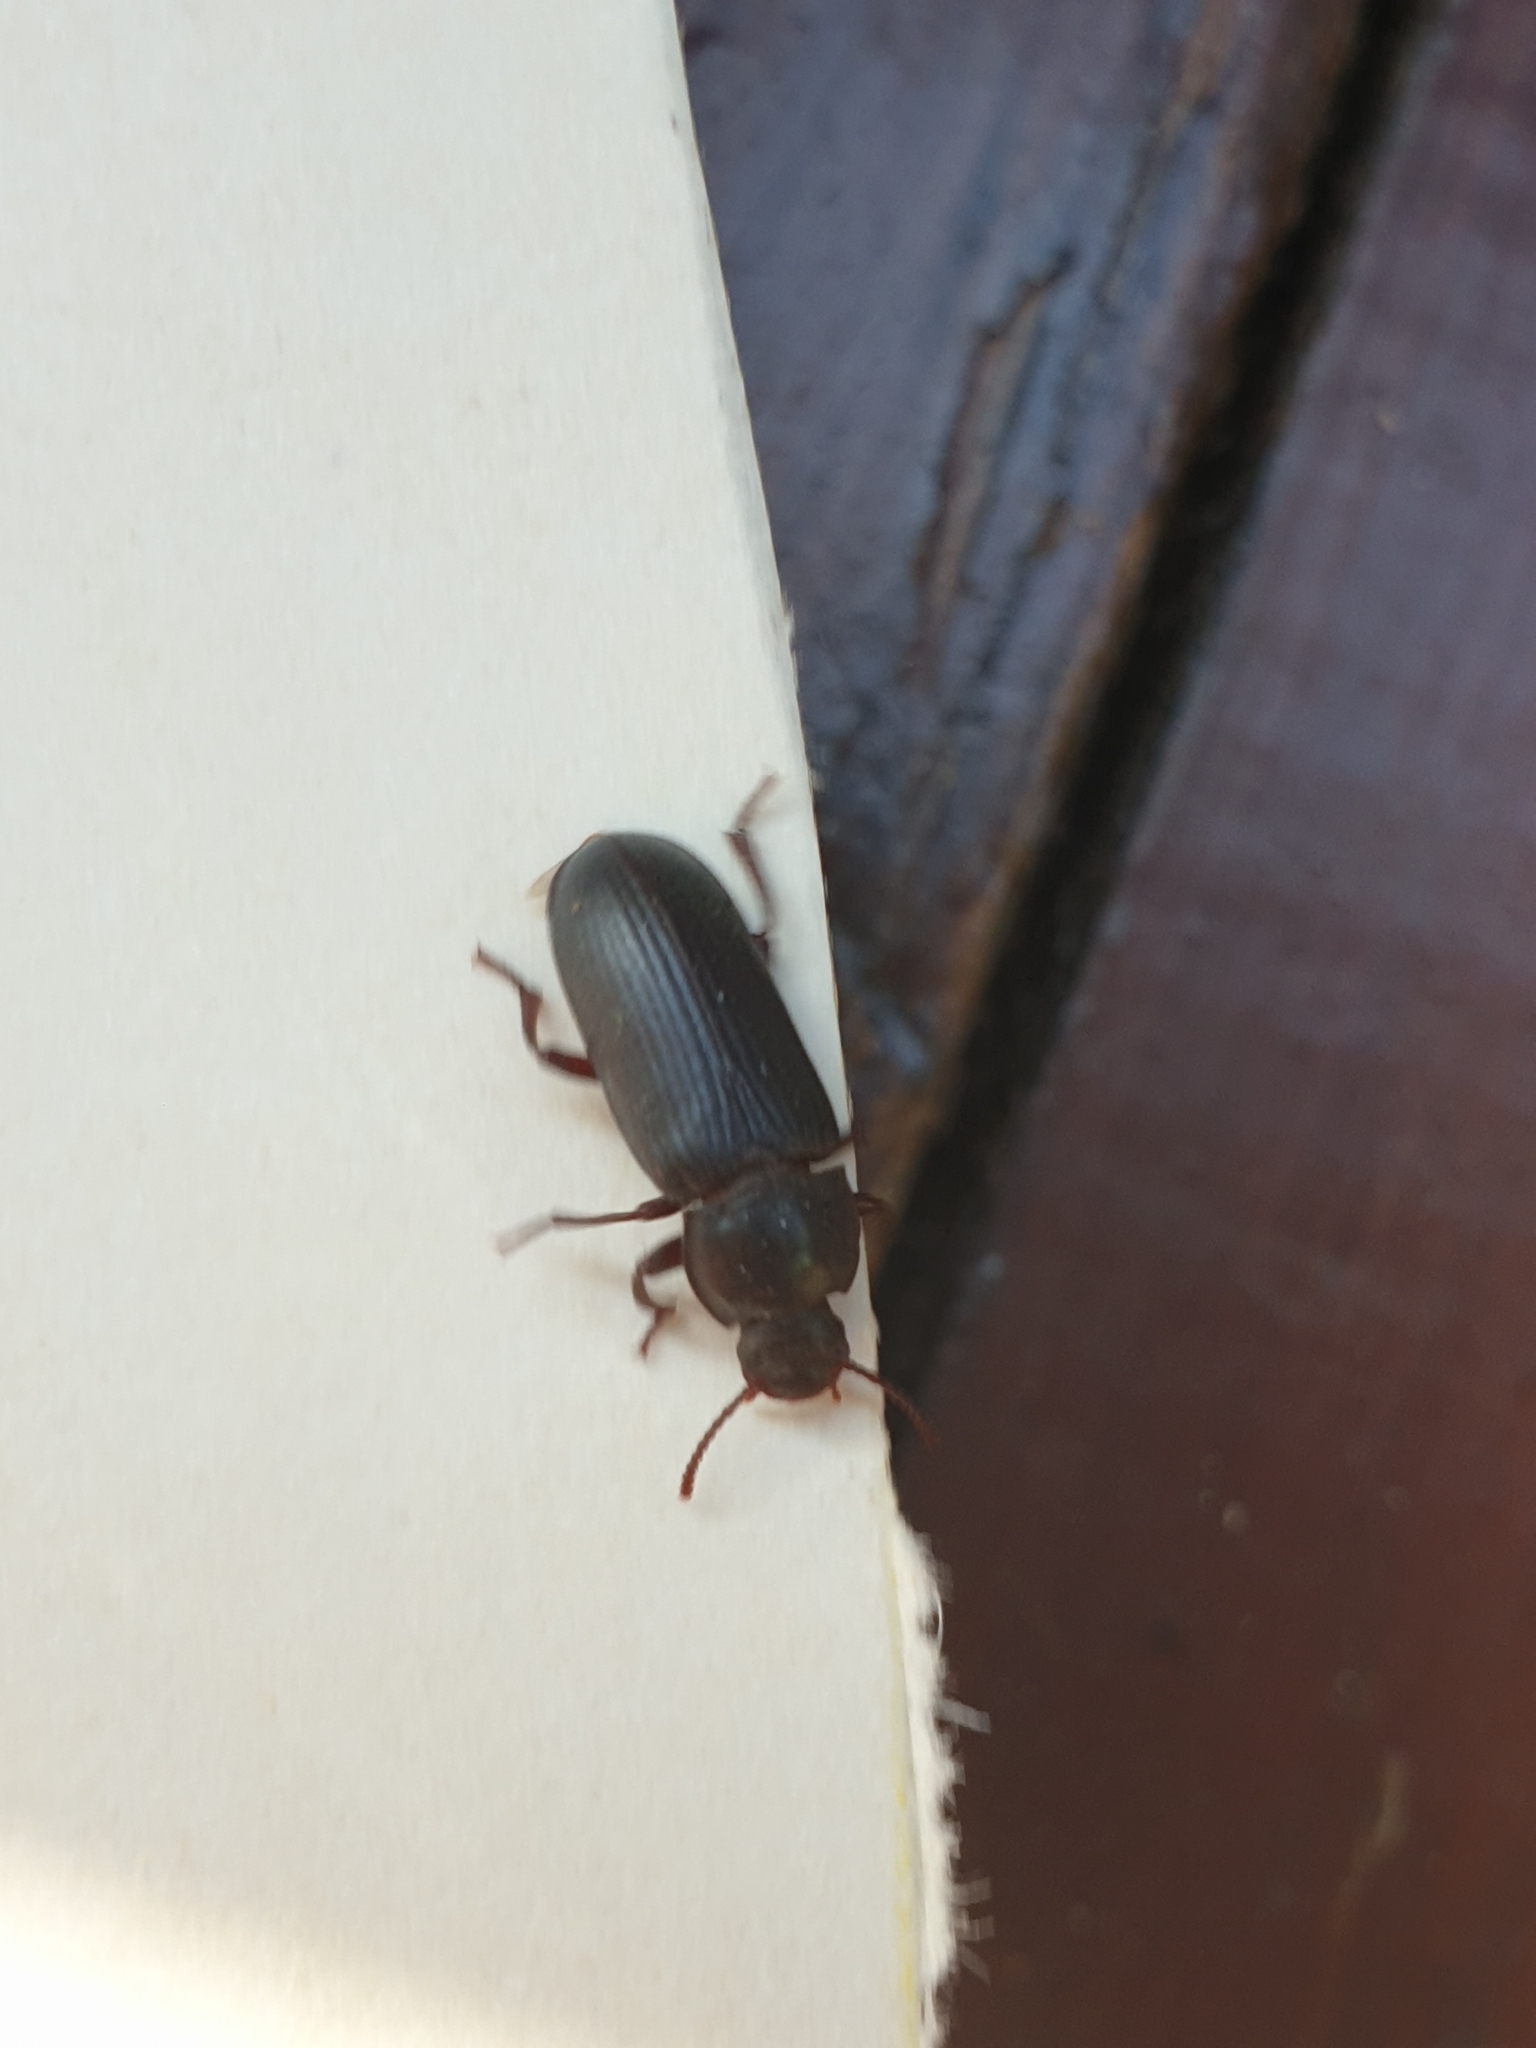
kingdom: Animalia
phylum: Arthropoda
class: Insecta
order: Coleoptera
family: Tenebrionidae
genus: Tenebrio
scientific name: Tenebrio molitor
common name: Hardback beetle
